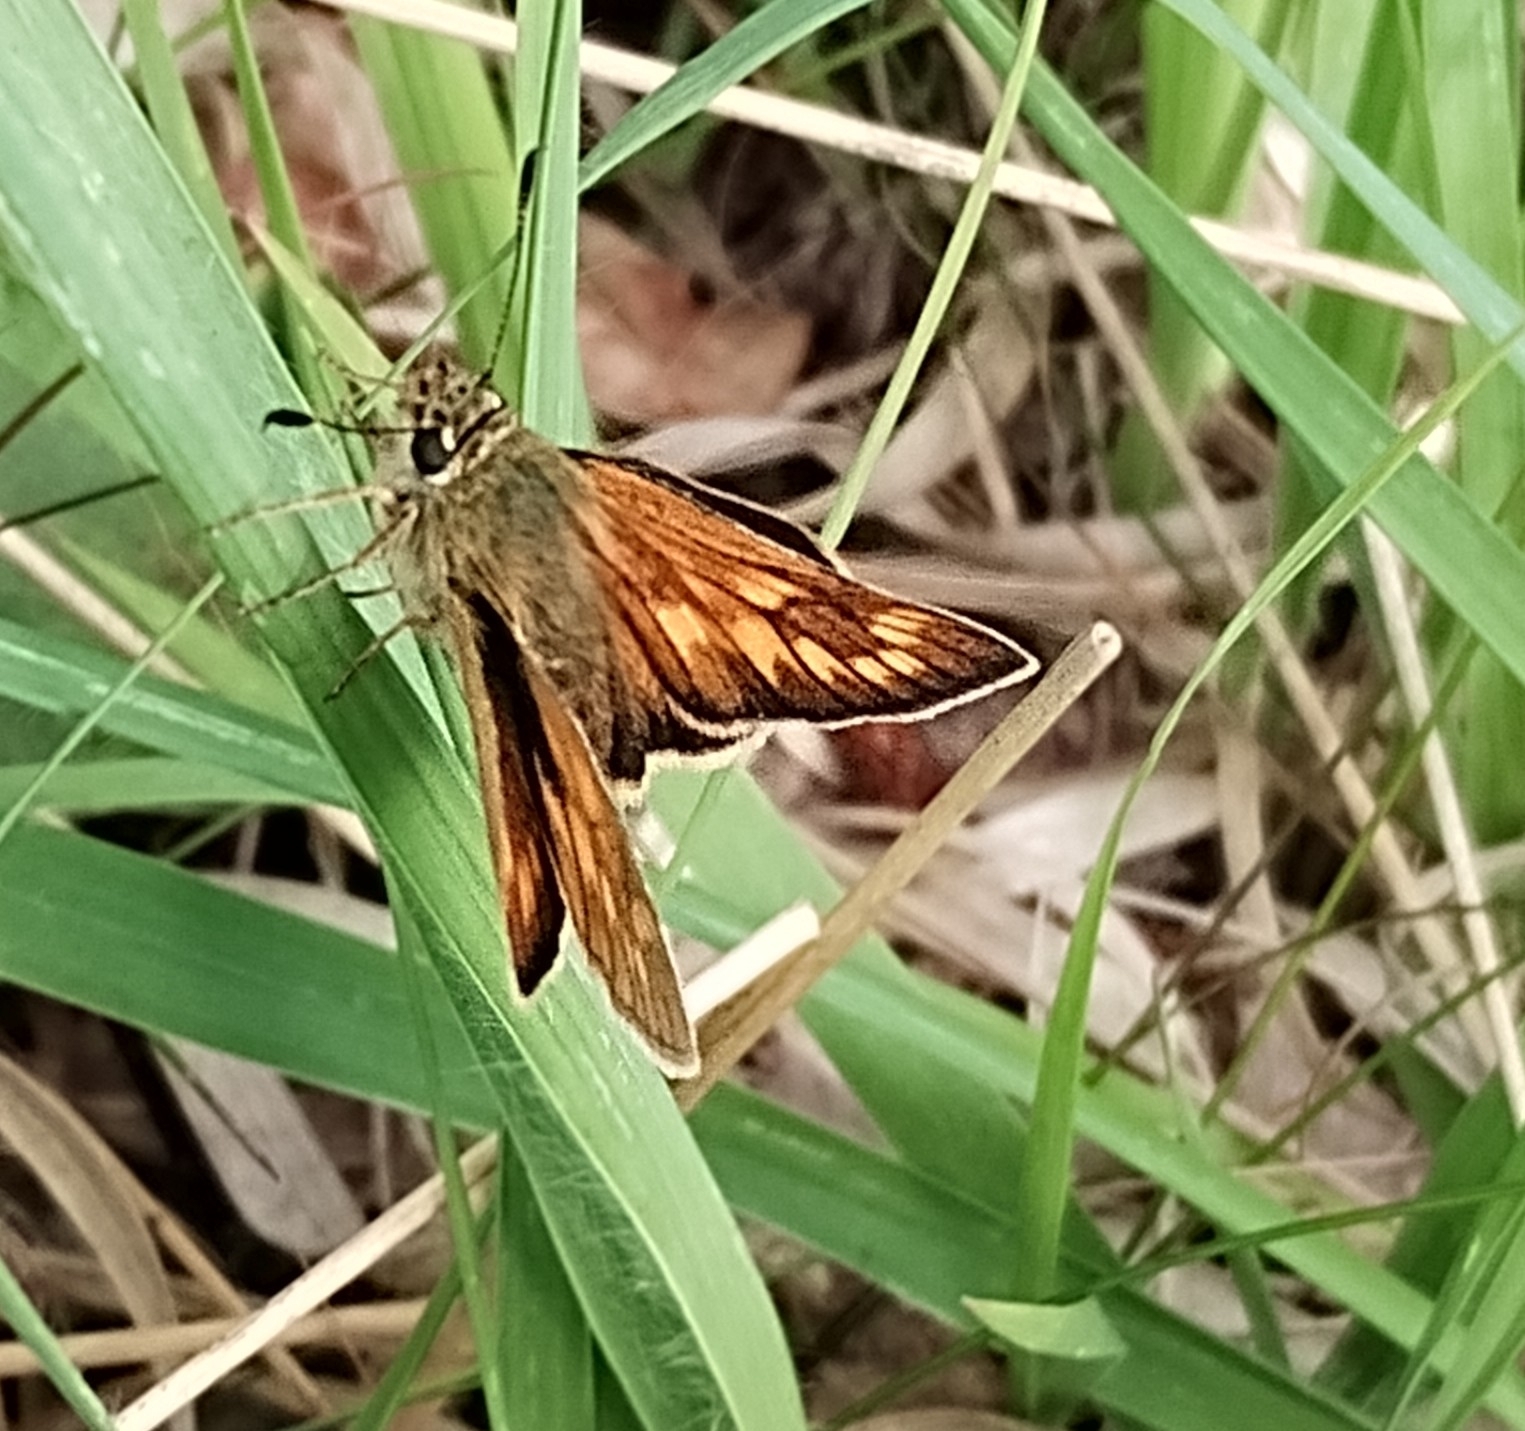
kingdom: Animalia
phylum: Arthropoda
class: Insecta
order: Lepidoptera
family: Hesperiidae
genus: Ochlodes
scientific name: Ochlodes venata
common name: Large skipper
